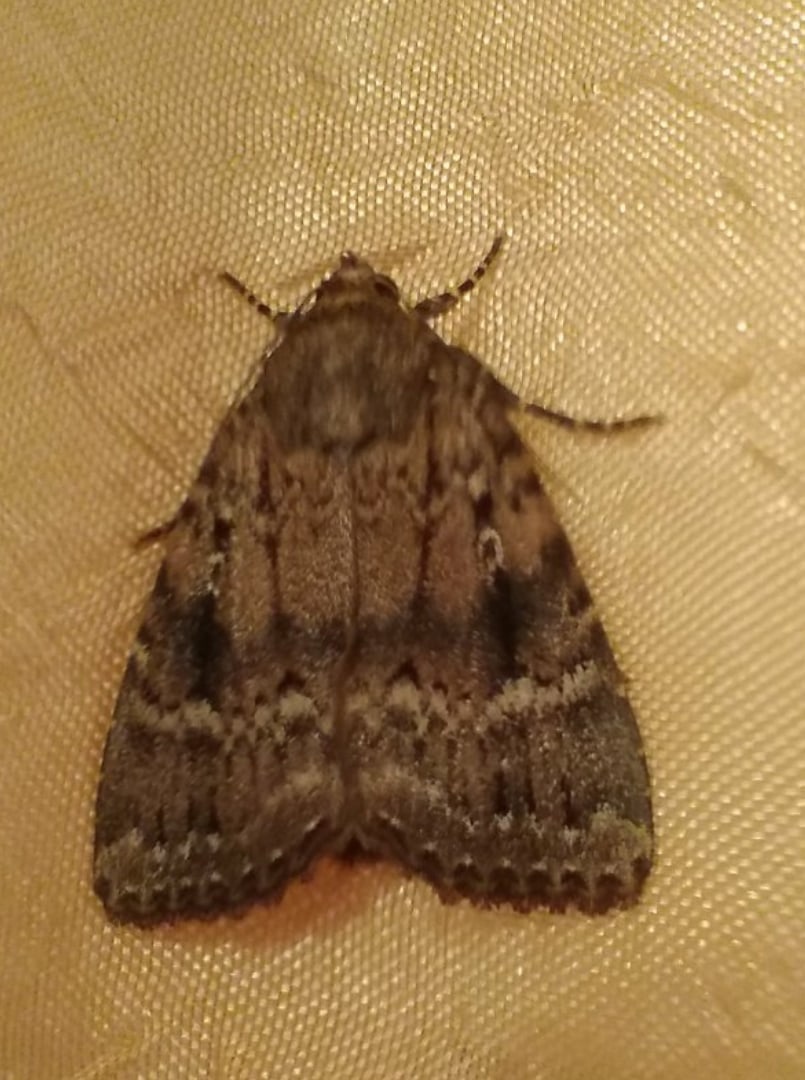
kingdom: Animalia
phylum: Arthropoda
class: Insecta
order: Lepidoptera
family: Noctuidae
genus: Amphipyra
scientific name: Amphipyra pyramidea
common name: Copper underwing
